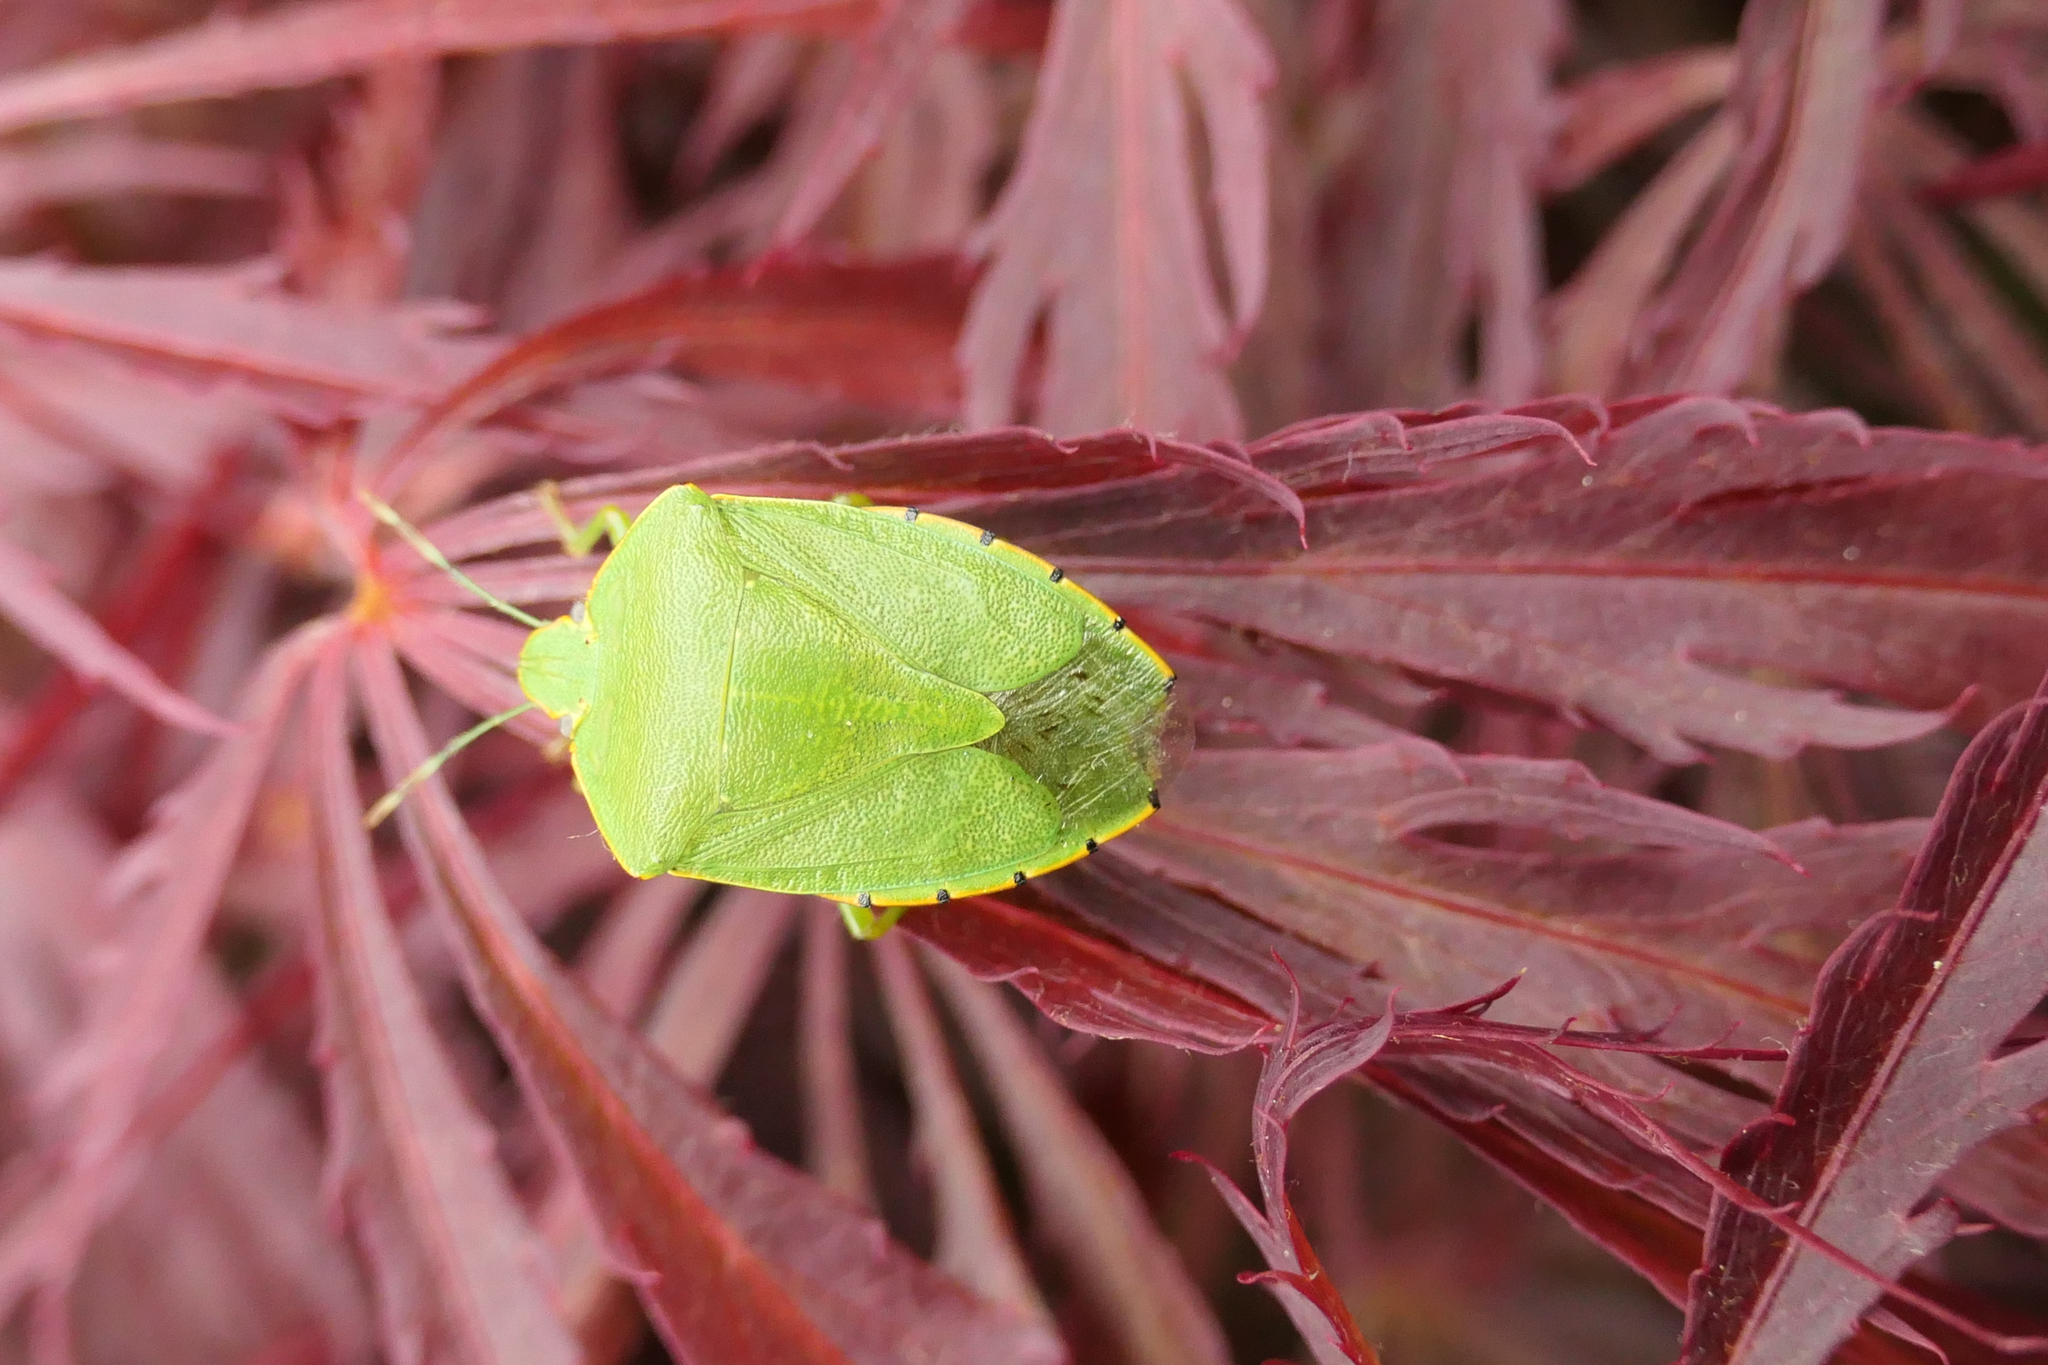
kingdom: Animalia
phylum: Arthropoda
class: Insecta
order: Hemiptera
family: Pentatomidae
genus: Chinavia
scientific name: Chinavia hilaris
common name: Green stink bug
